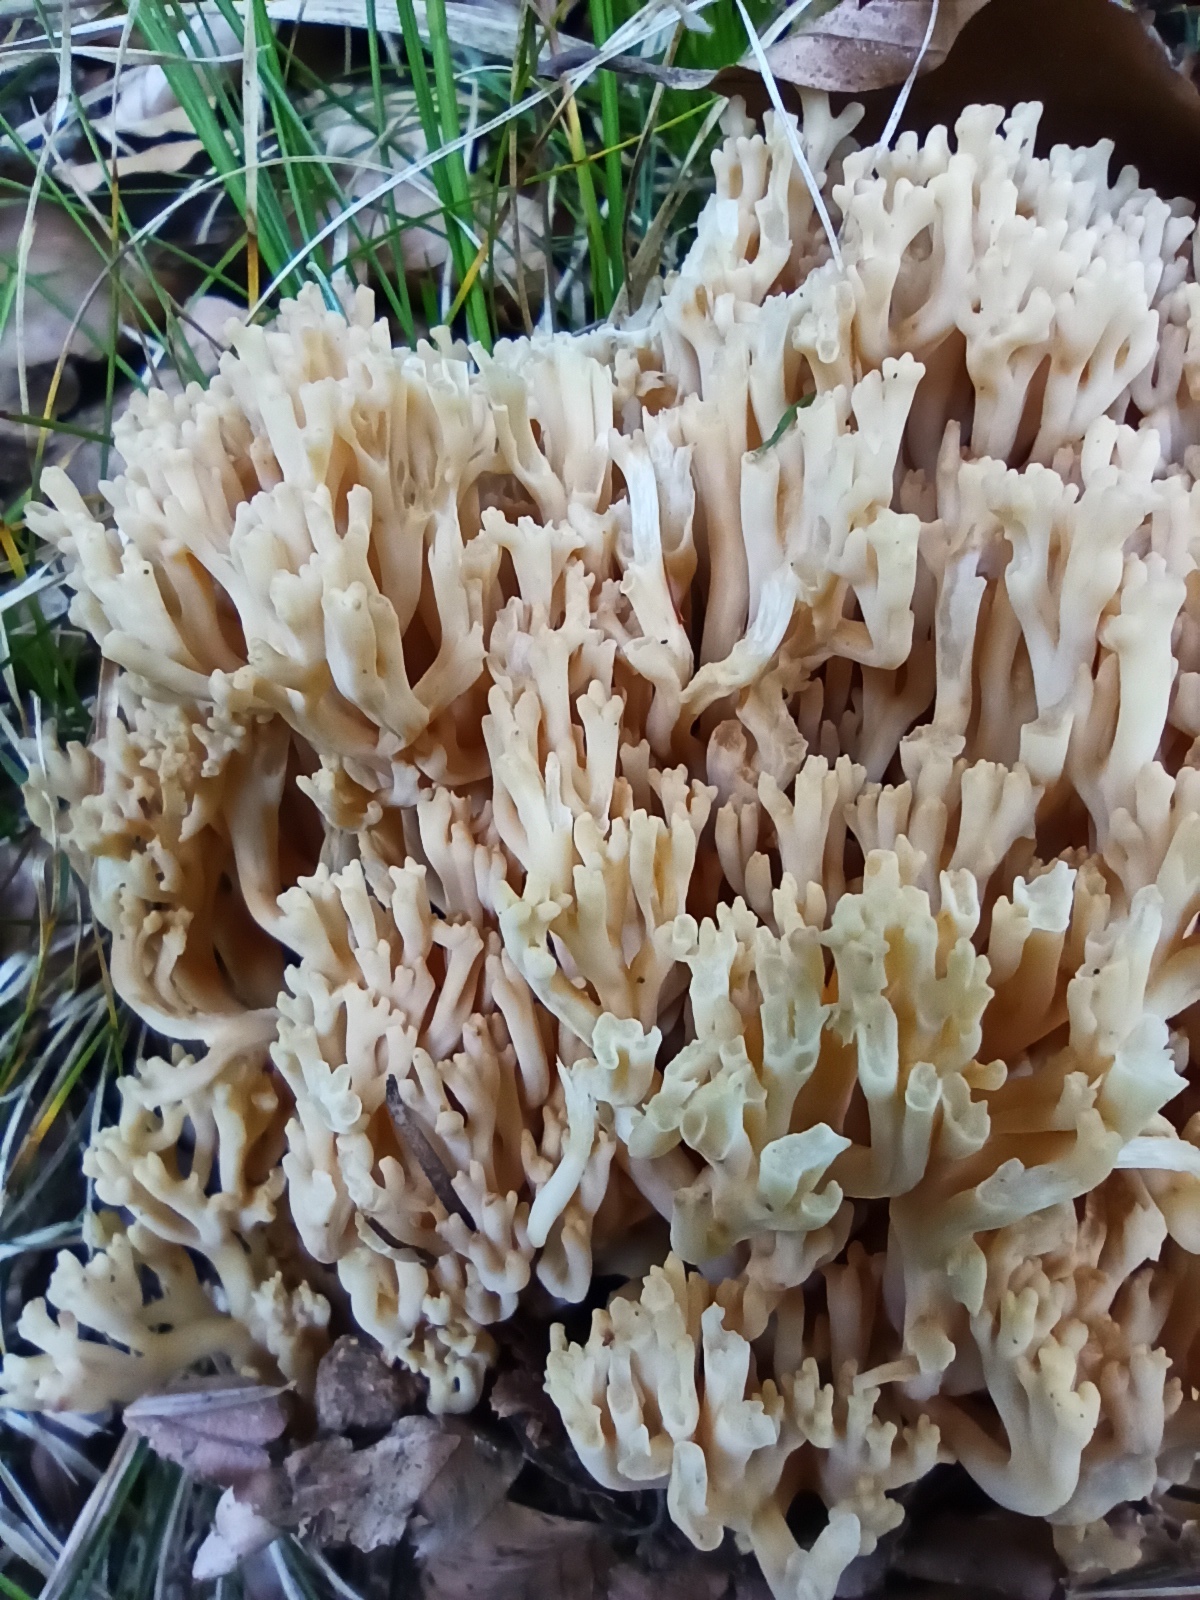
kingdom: Fungi
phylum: Basidiomycota
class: Agaricomycetes
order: Gomphales
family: Gomphaceae
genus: Ramaria
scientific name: Ramaria pallida
